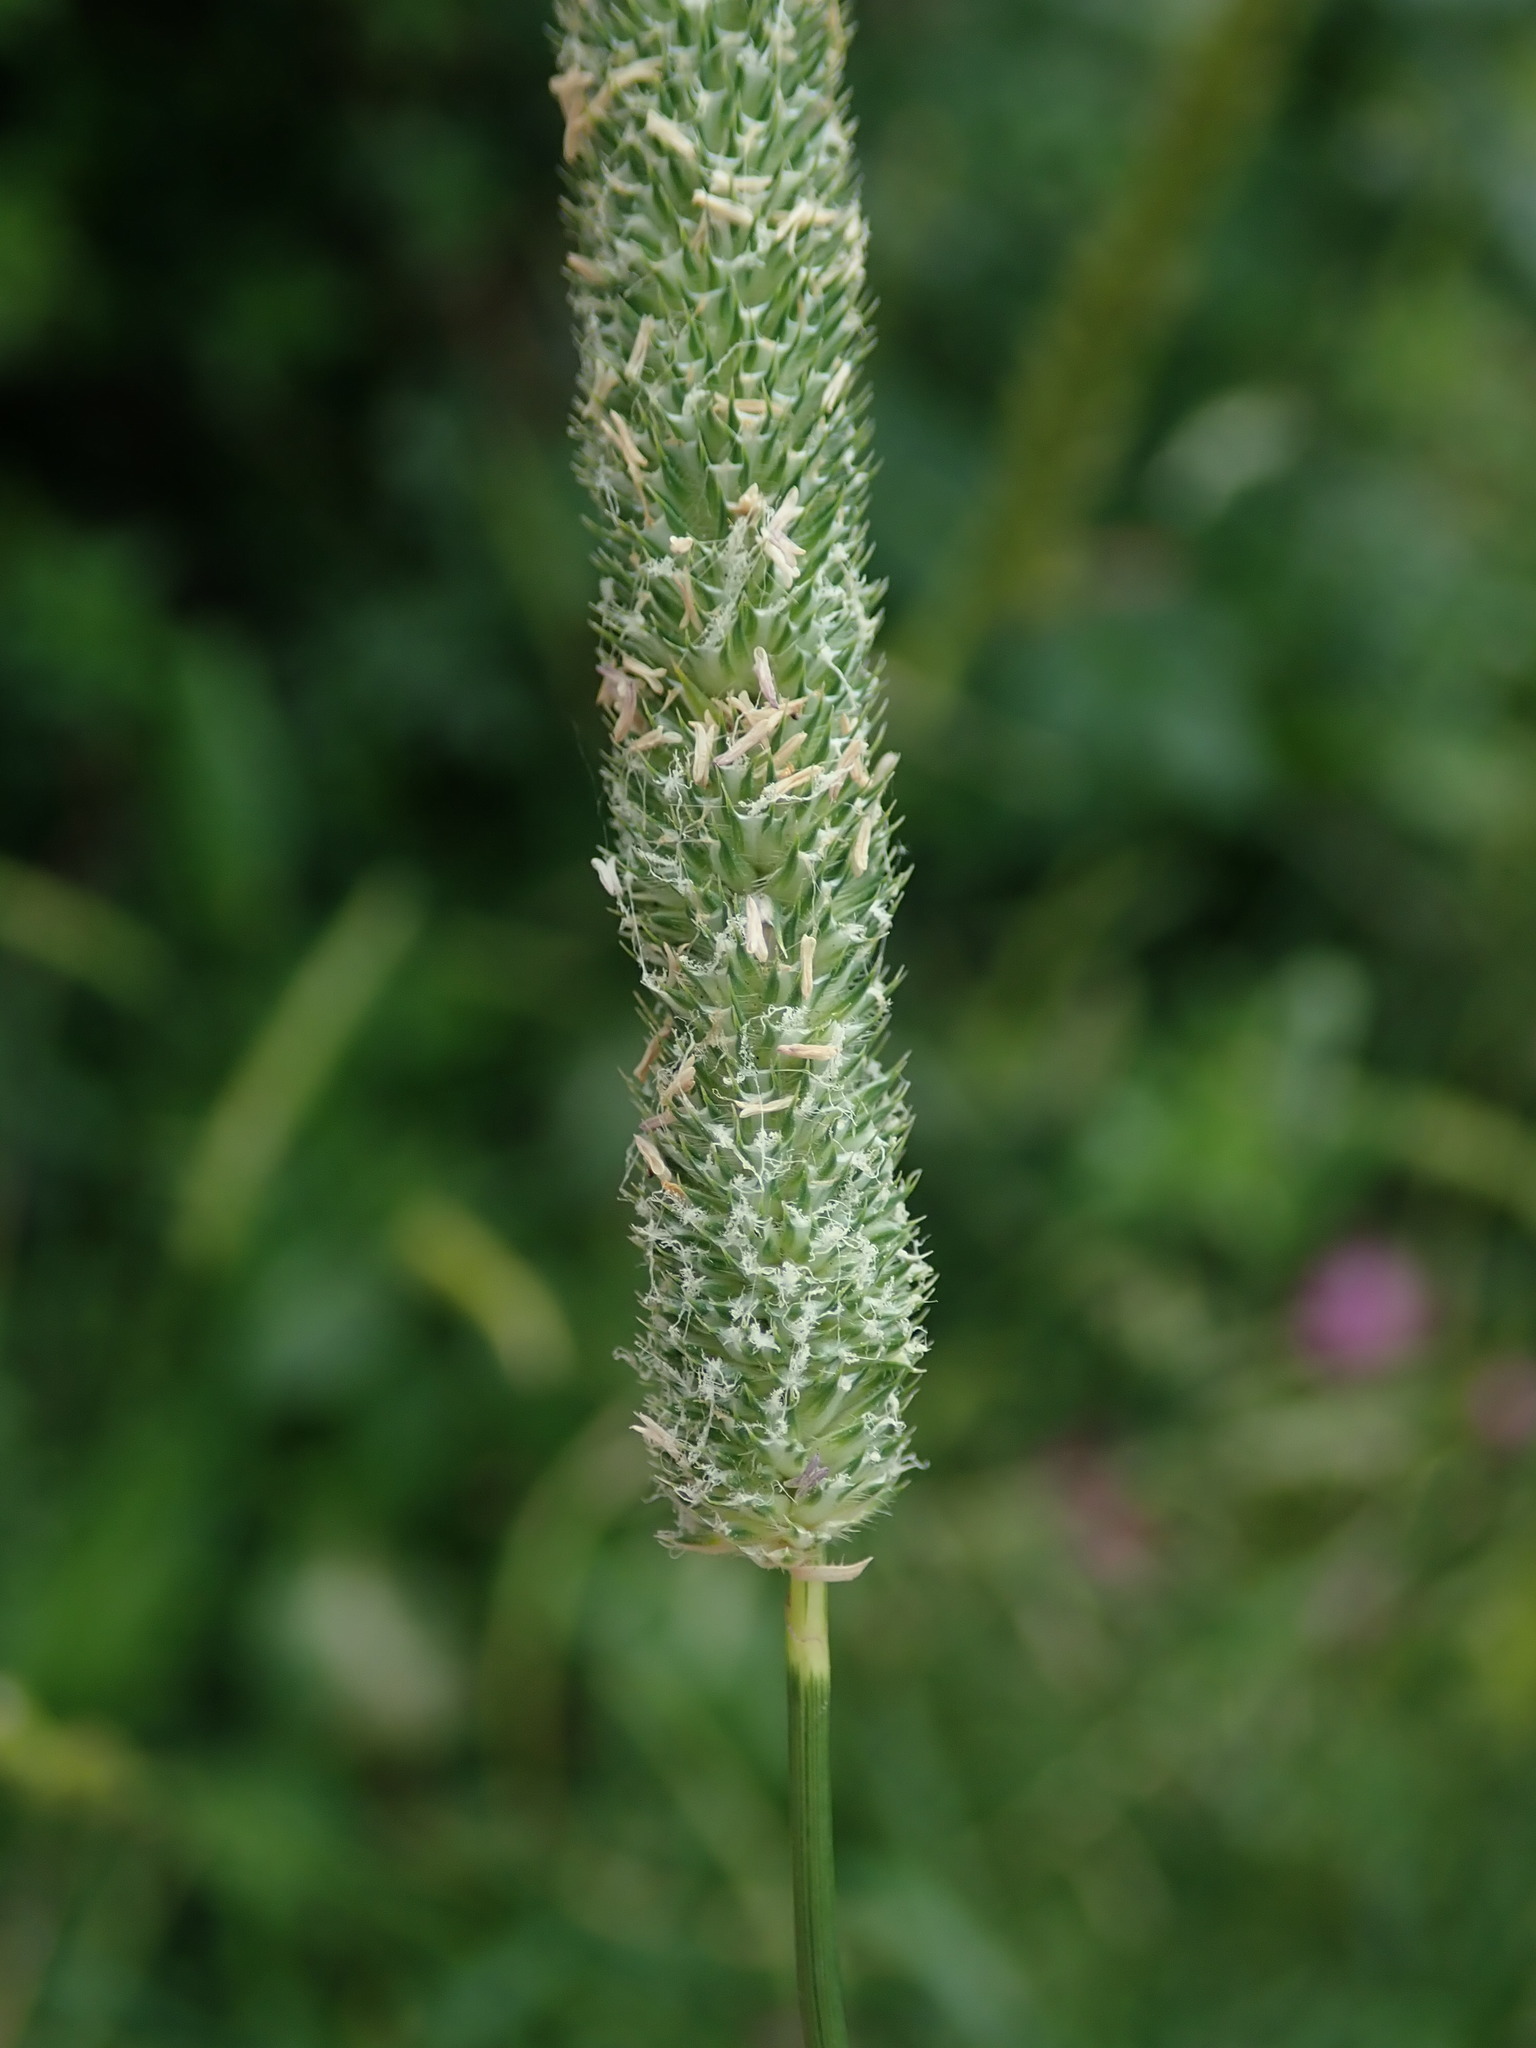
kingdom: Plantae
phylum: Tracheophyta
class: Liliopsida
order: Poales
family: Poaceae
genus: Phleum
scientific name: Phleum pratense
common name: Timothy grass
